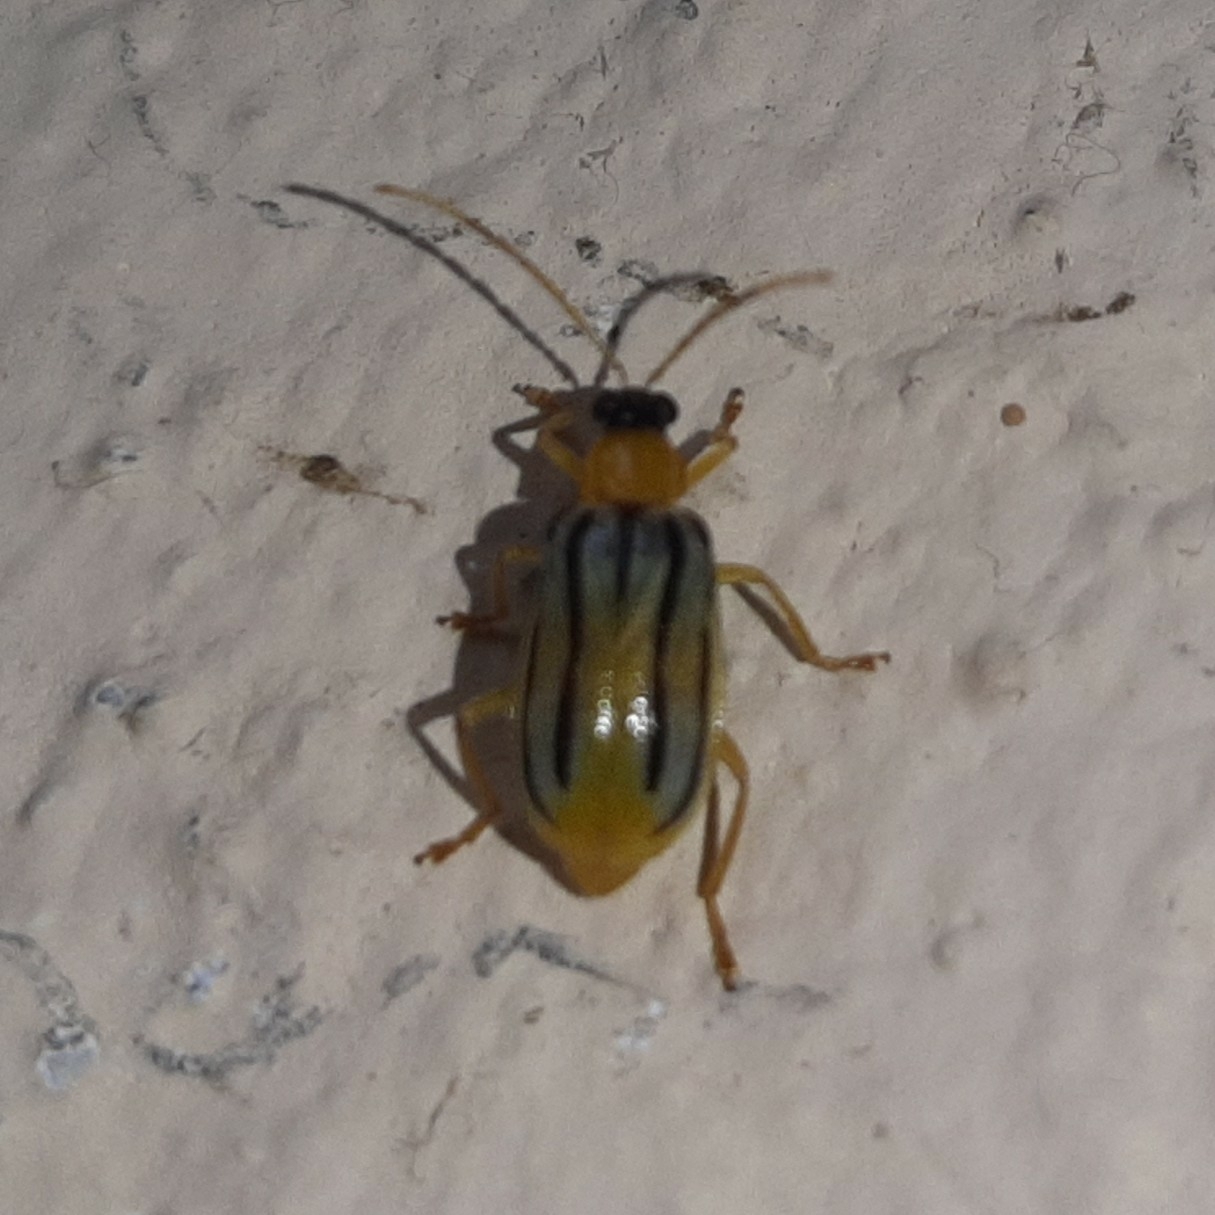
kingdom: Animalia
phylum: Arthropoda
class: Insecta
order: Coleoptera
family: Chrysomelidae
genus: Diabrotica
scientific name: Diabrotica
